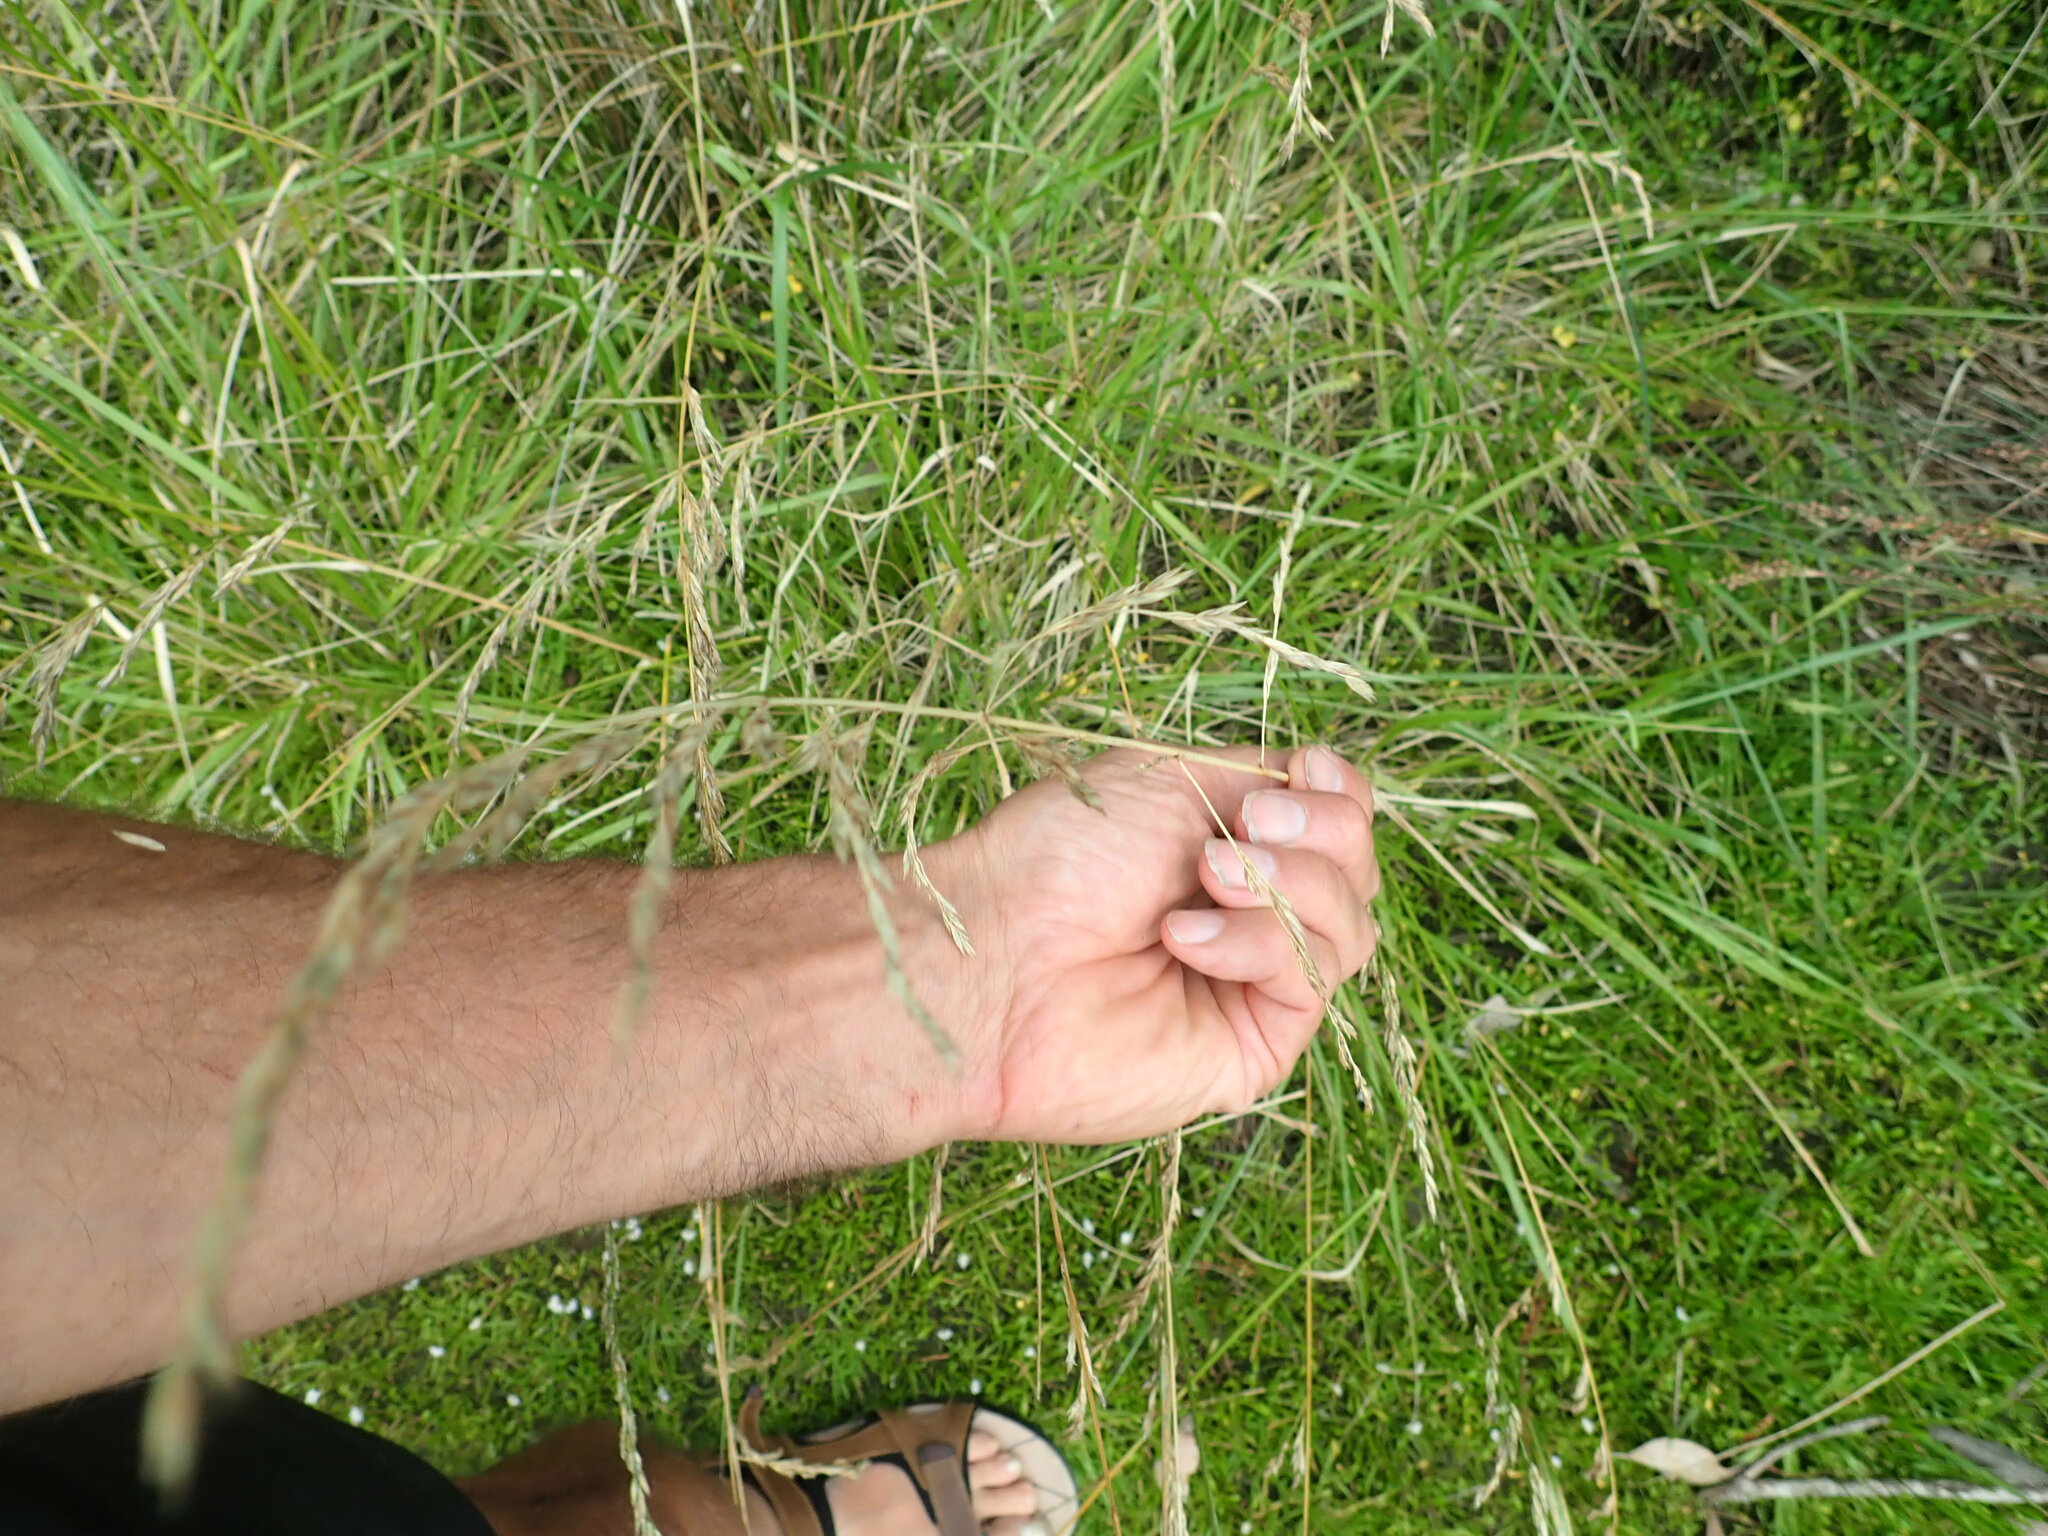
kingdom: Plantae
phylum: Tracheophyta
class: Liliopsida
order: Poales
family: Poaceae
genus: Lolium
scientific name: Lolium arundinaceum
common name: Reed fescue
